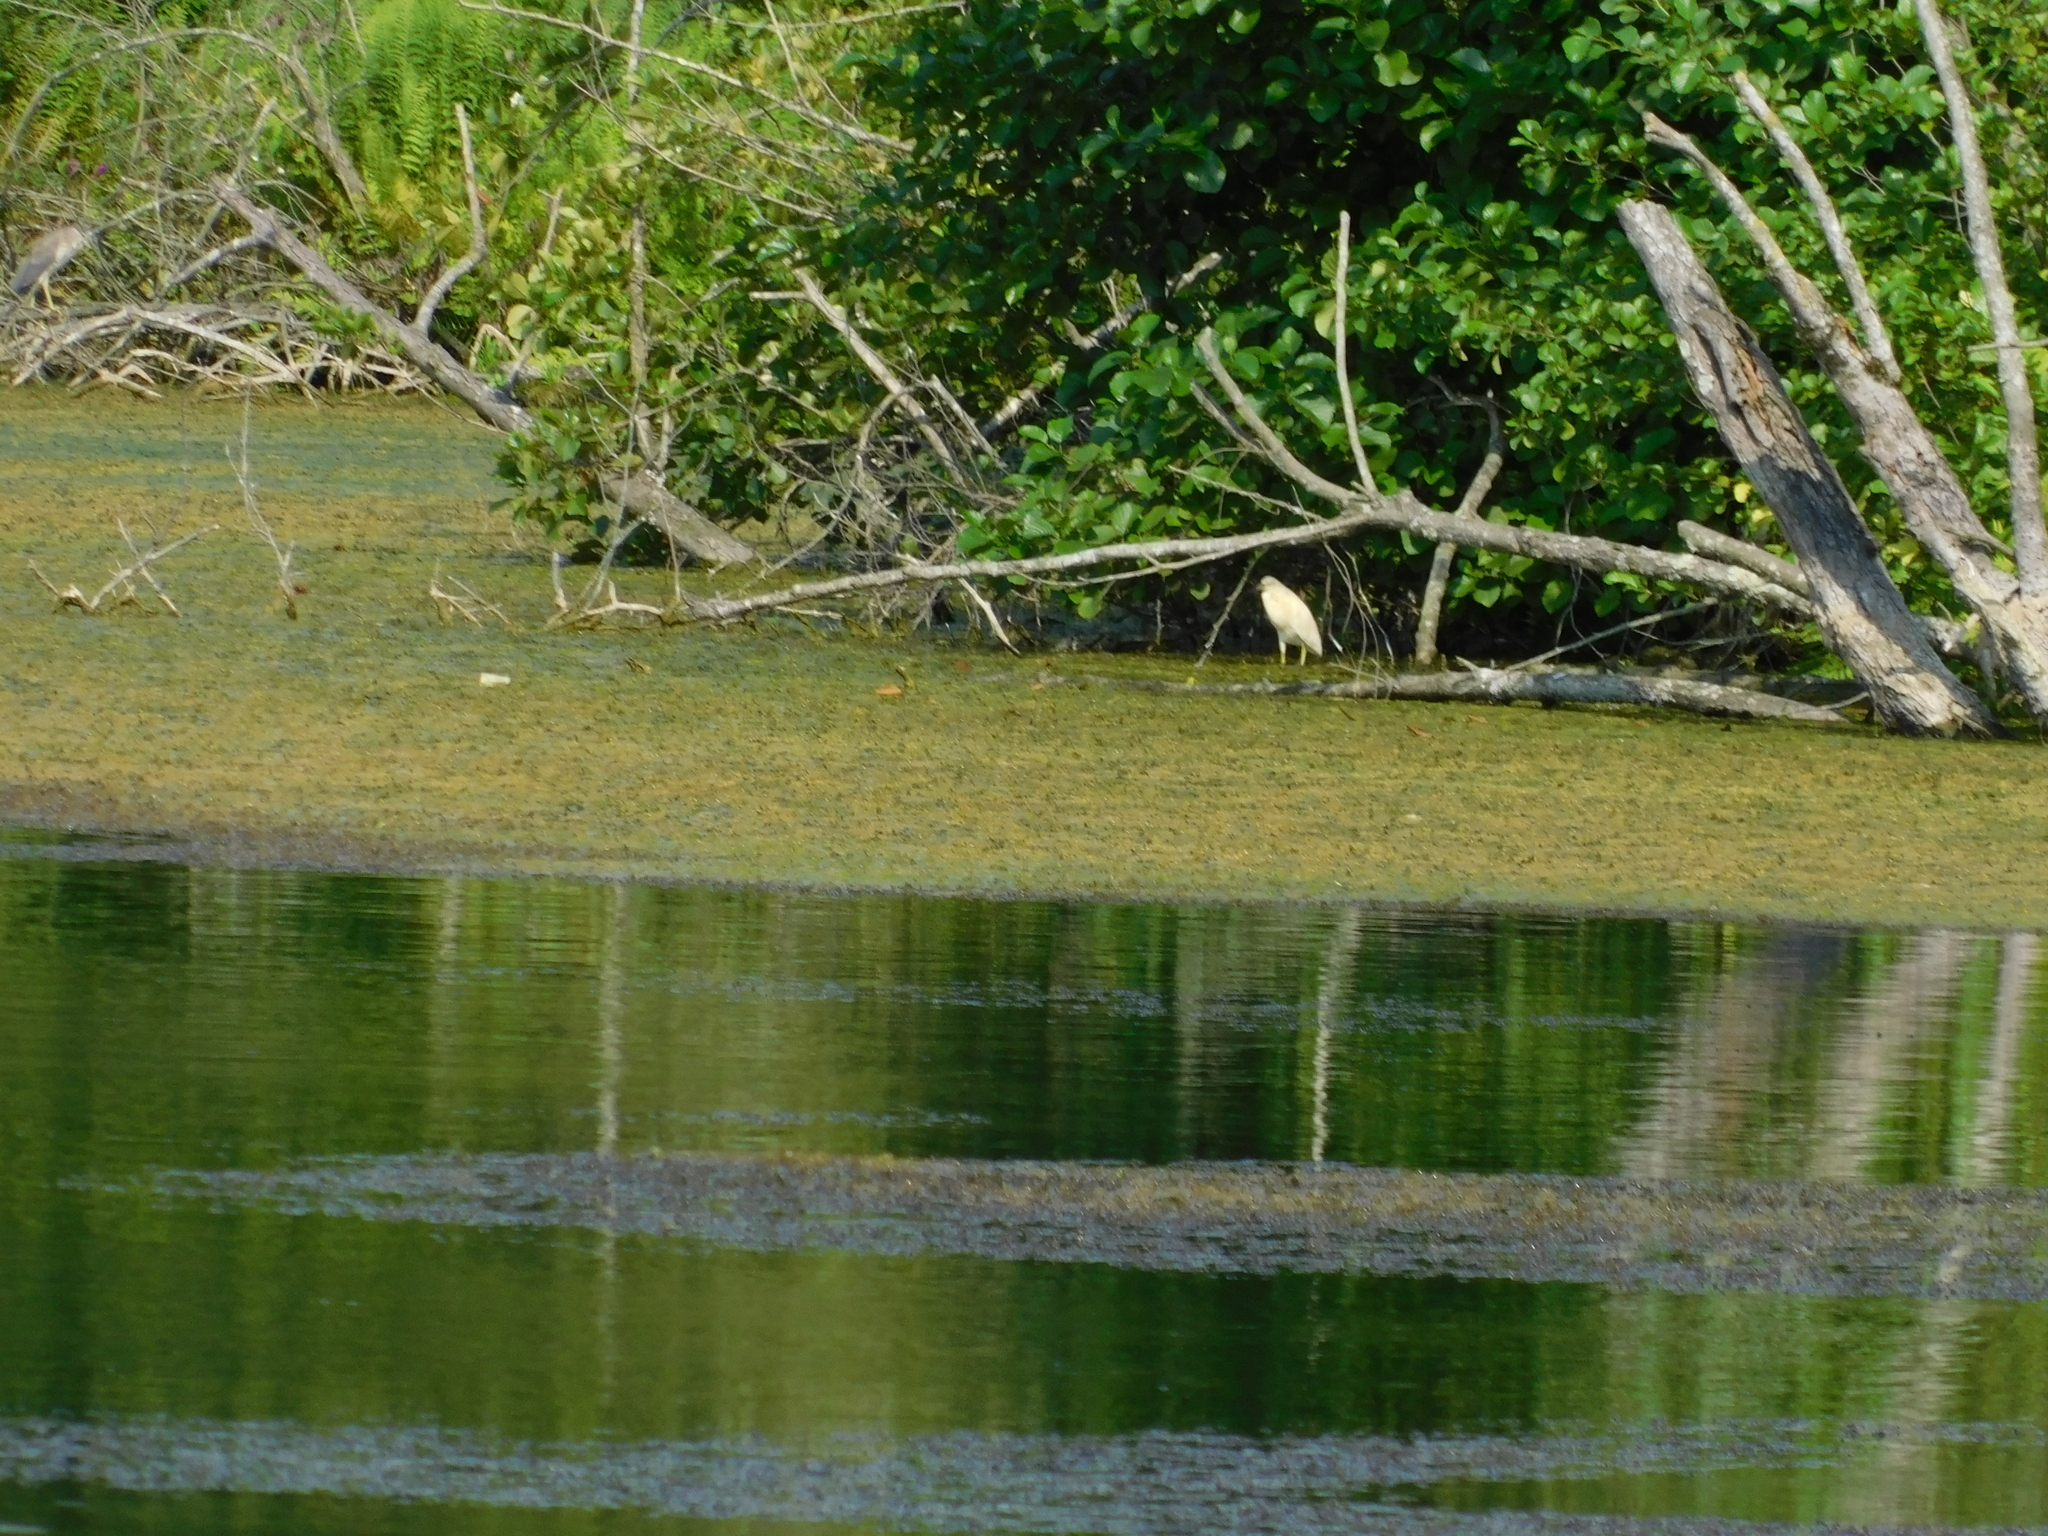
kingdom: Animalia
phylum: Chordata
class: Aves
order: Pelecaniformes
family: Ardeidae
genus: Ardeola
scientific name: Ardeola ralloides
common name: Squacco heron
